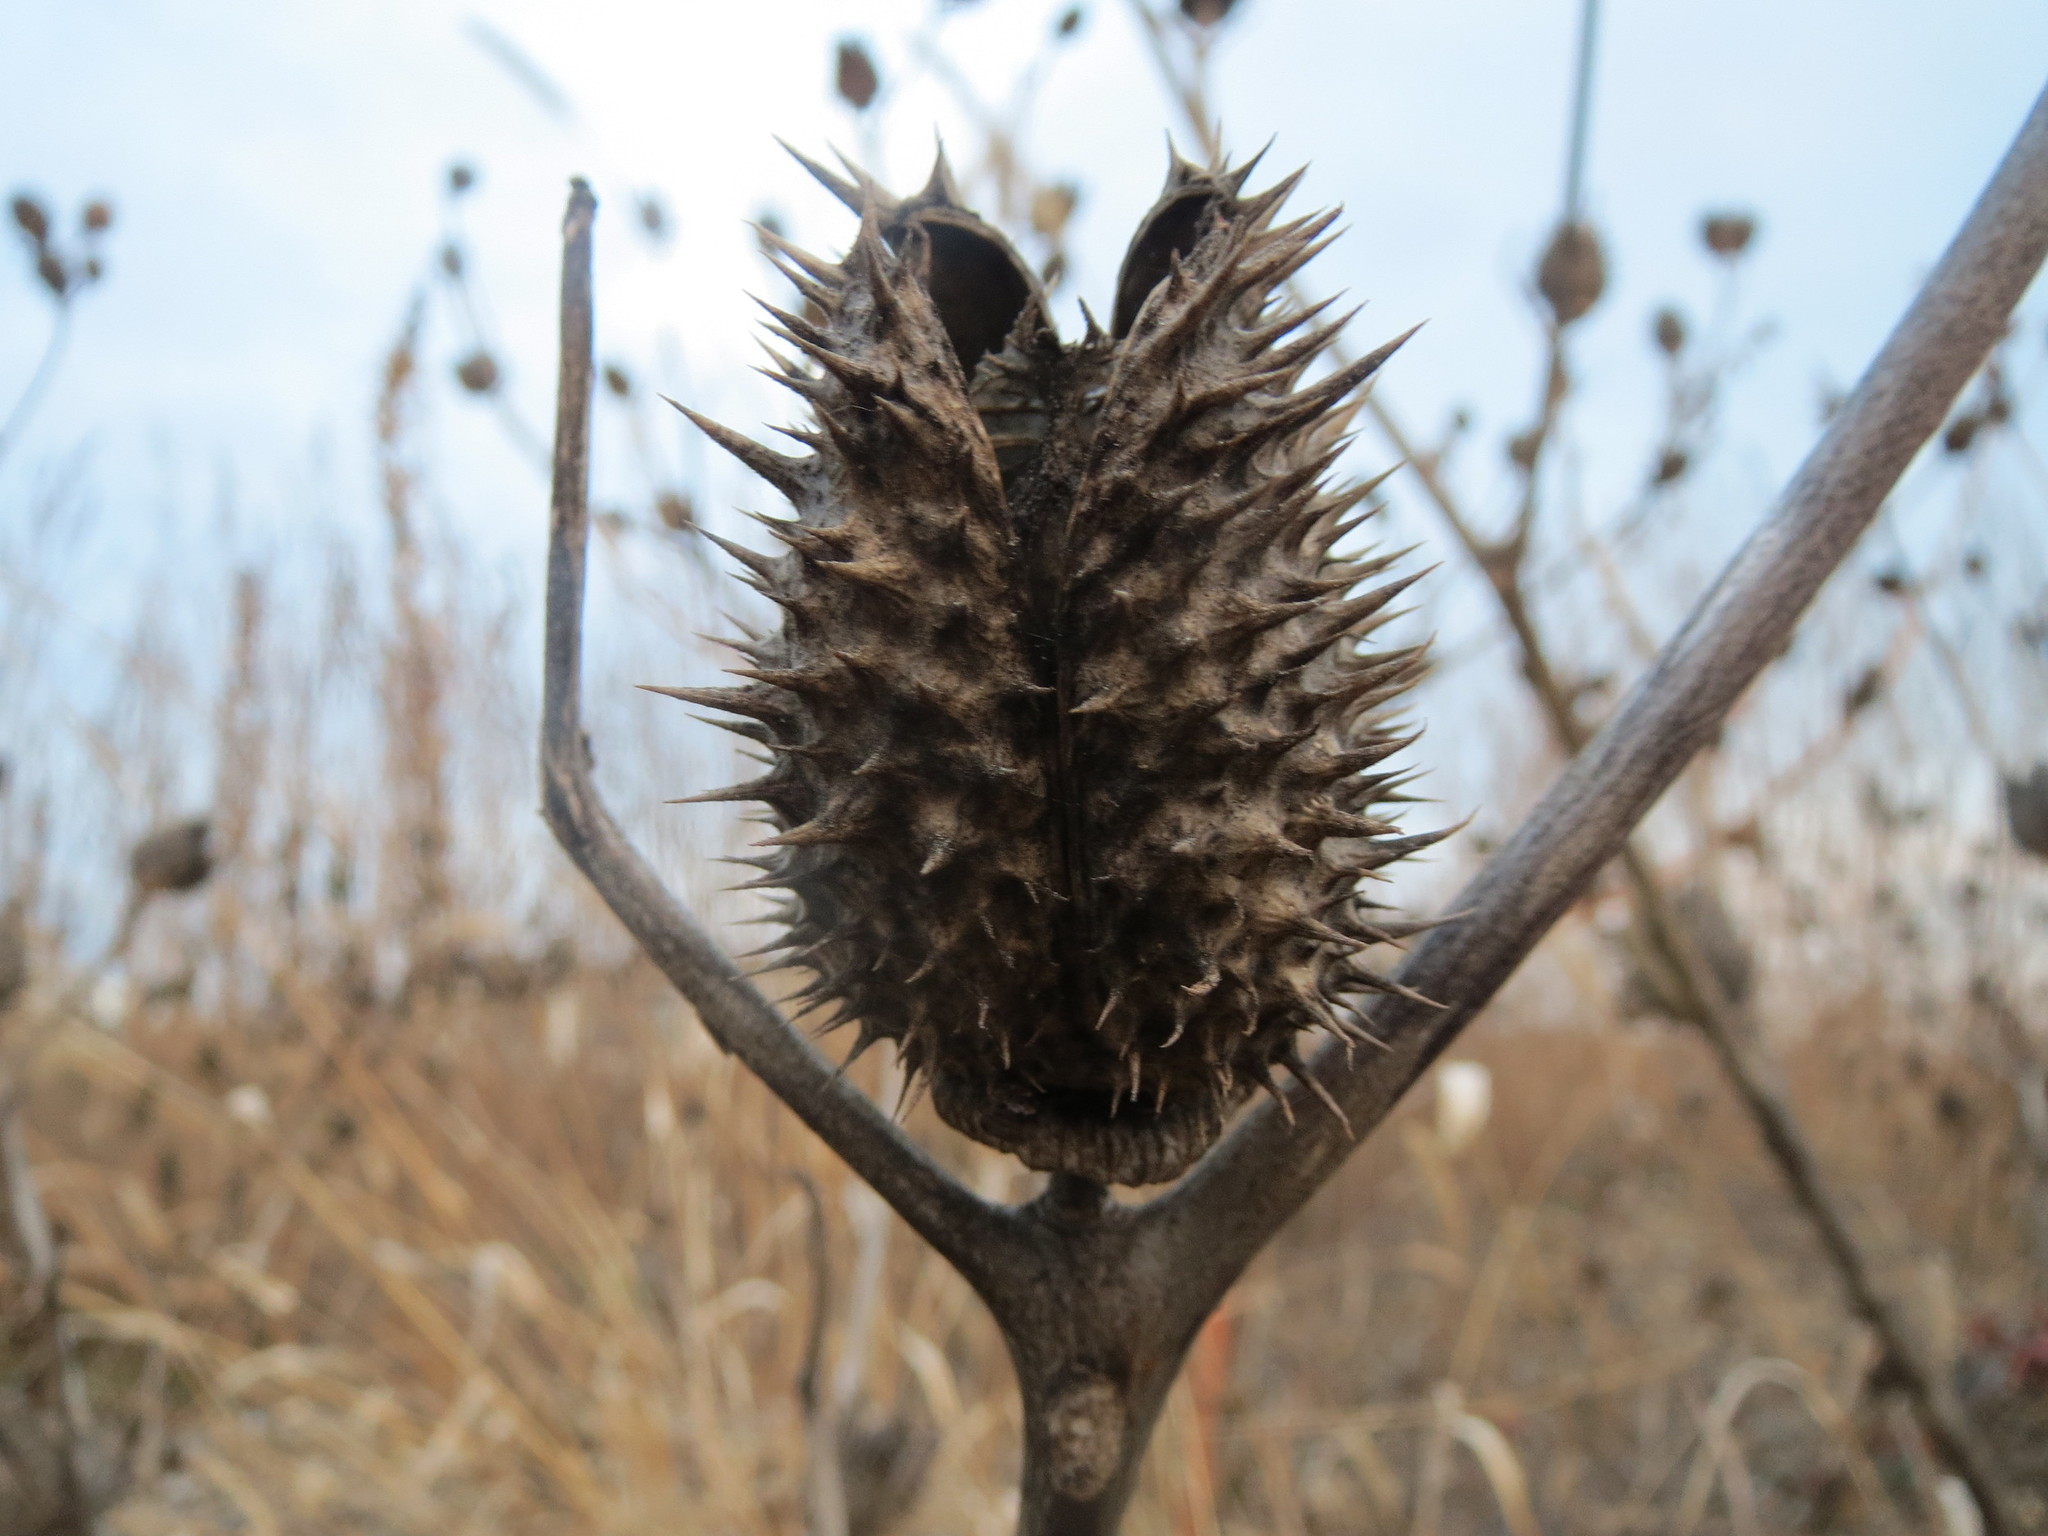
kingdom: Plantae
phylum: Tracheophyta
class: Magnoliopsida
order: Solanales
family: Solanaceae
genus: Datura
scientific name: Datura stramonium
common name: Thorn-apple
